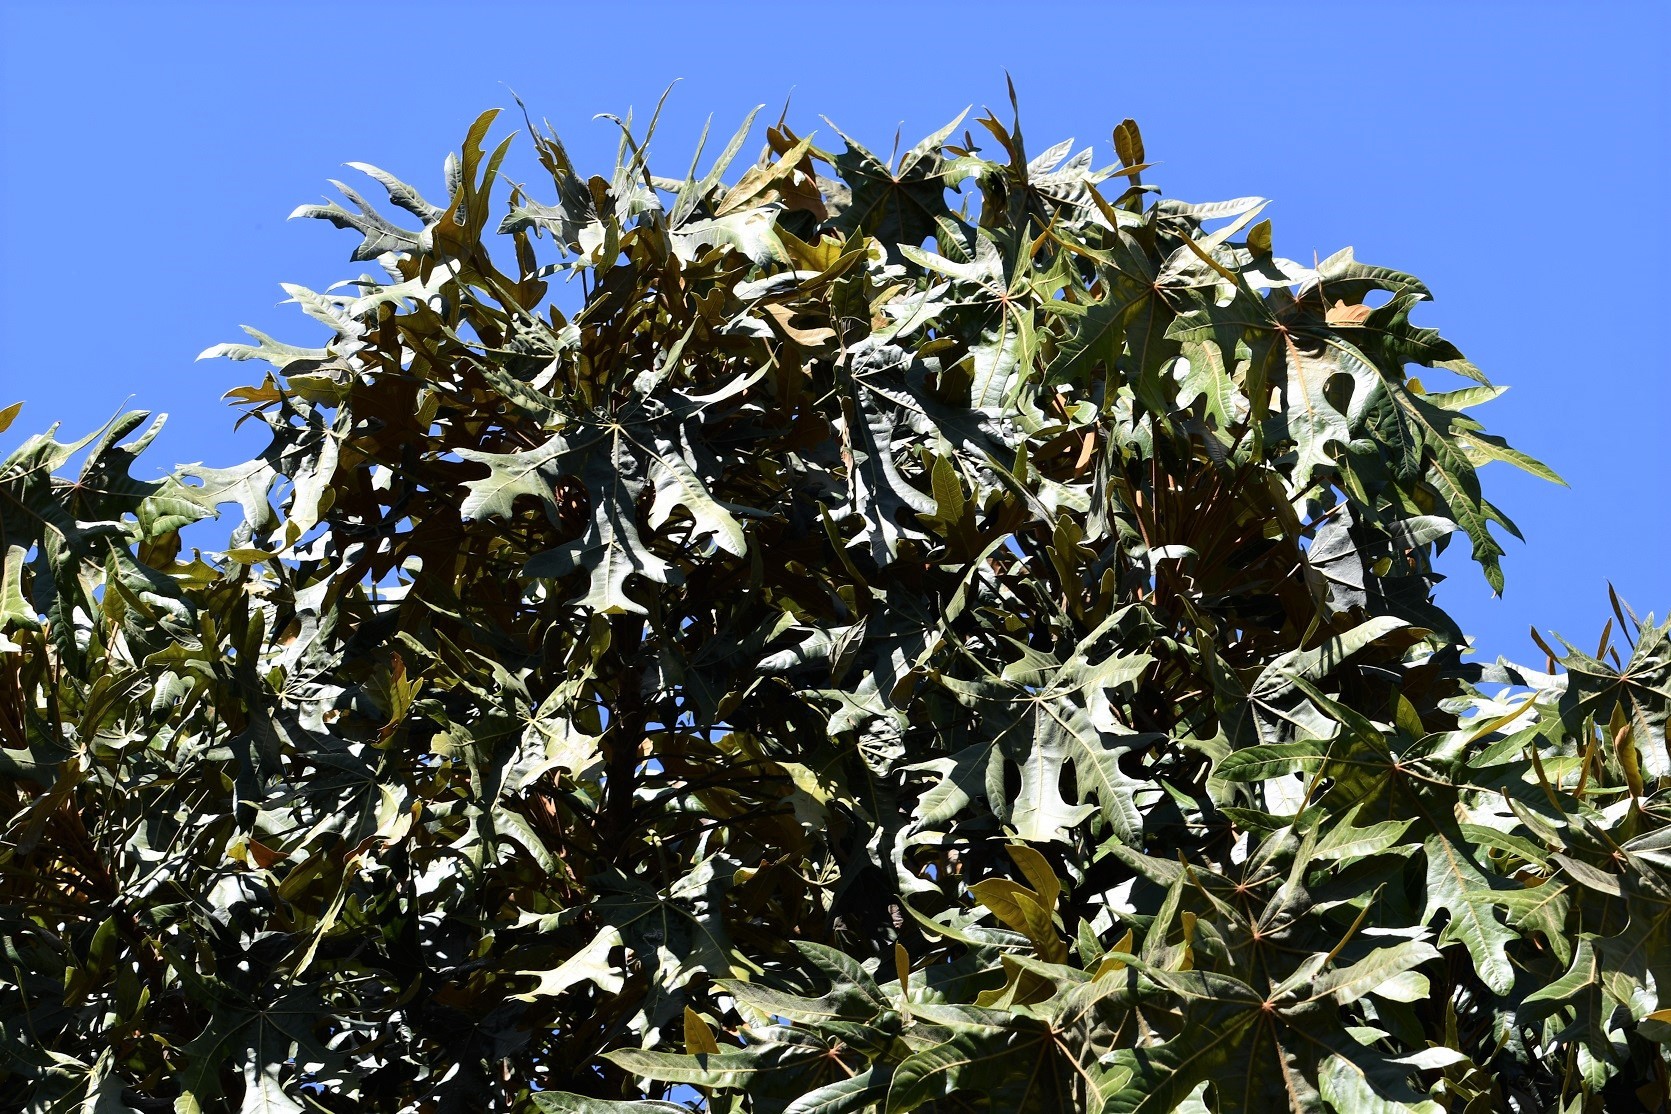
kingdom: Plantae
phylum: Tracheophyta
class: Magnoliopsida
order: Apiales
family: Araliaceae
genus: Oreopanax
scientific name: Oreopanax geminatus
